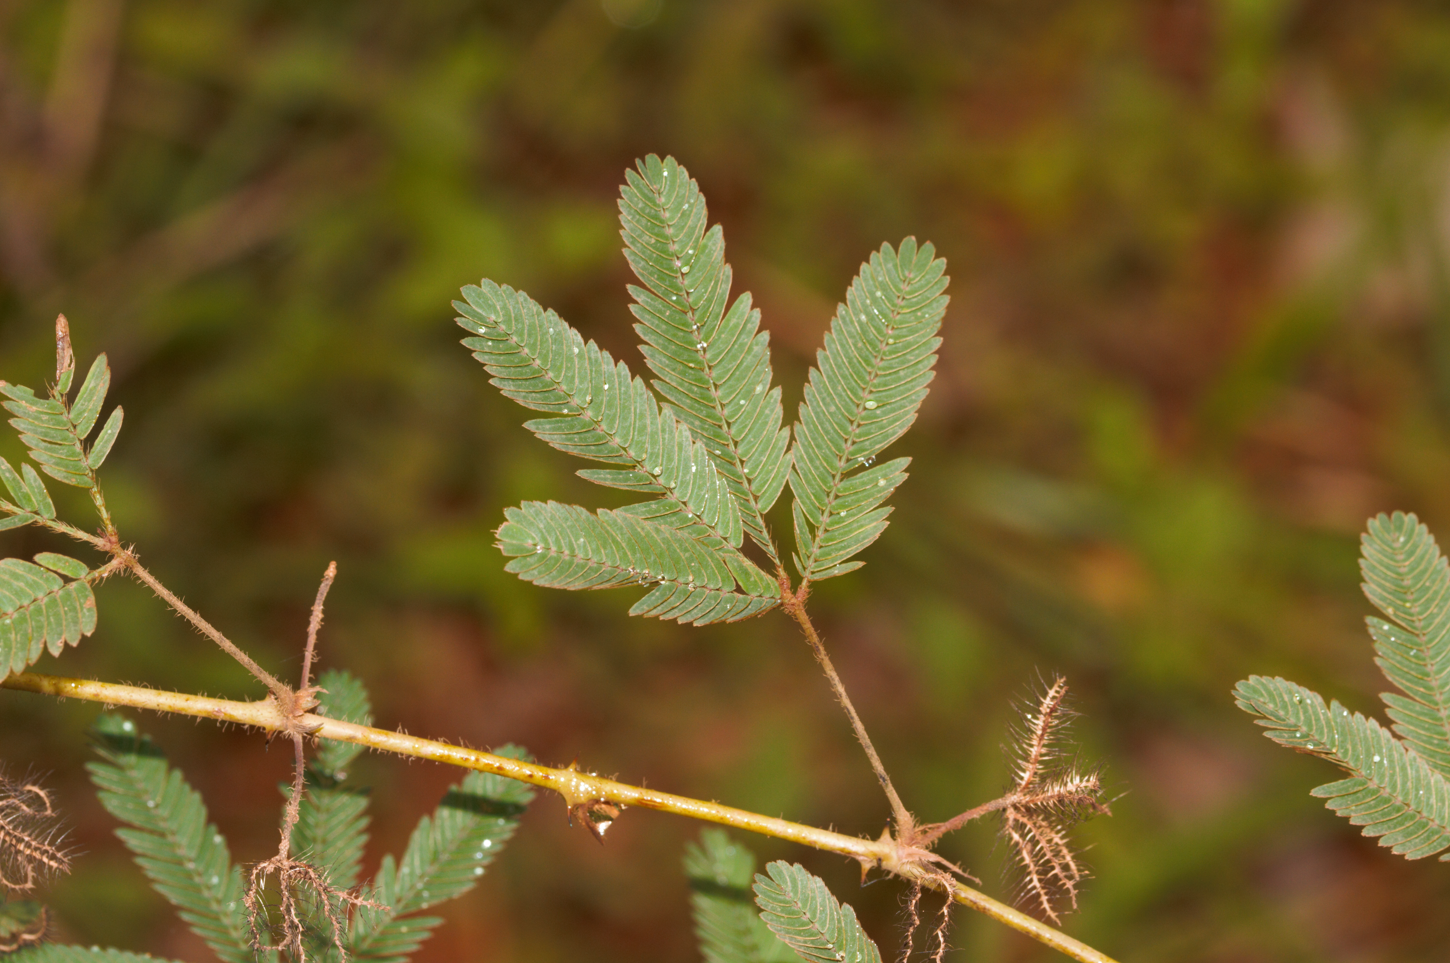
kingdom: Plantae
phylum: Tracheophyta
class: Magnoliopsida
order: Fabales
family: Fabaceae
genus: Mimosa
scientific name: Mimosa pudica
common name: Sensitive plant
